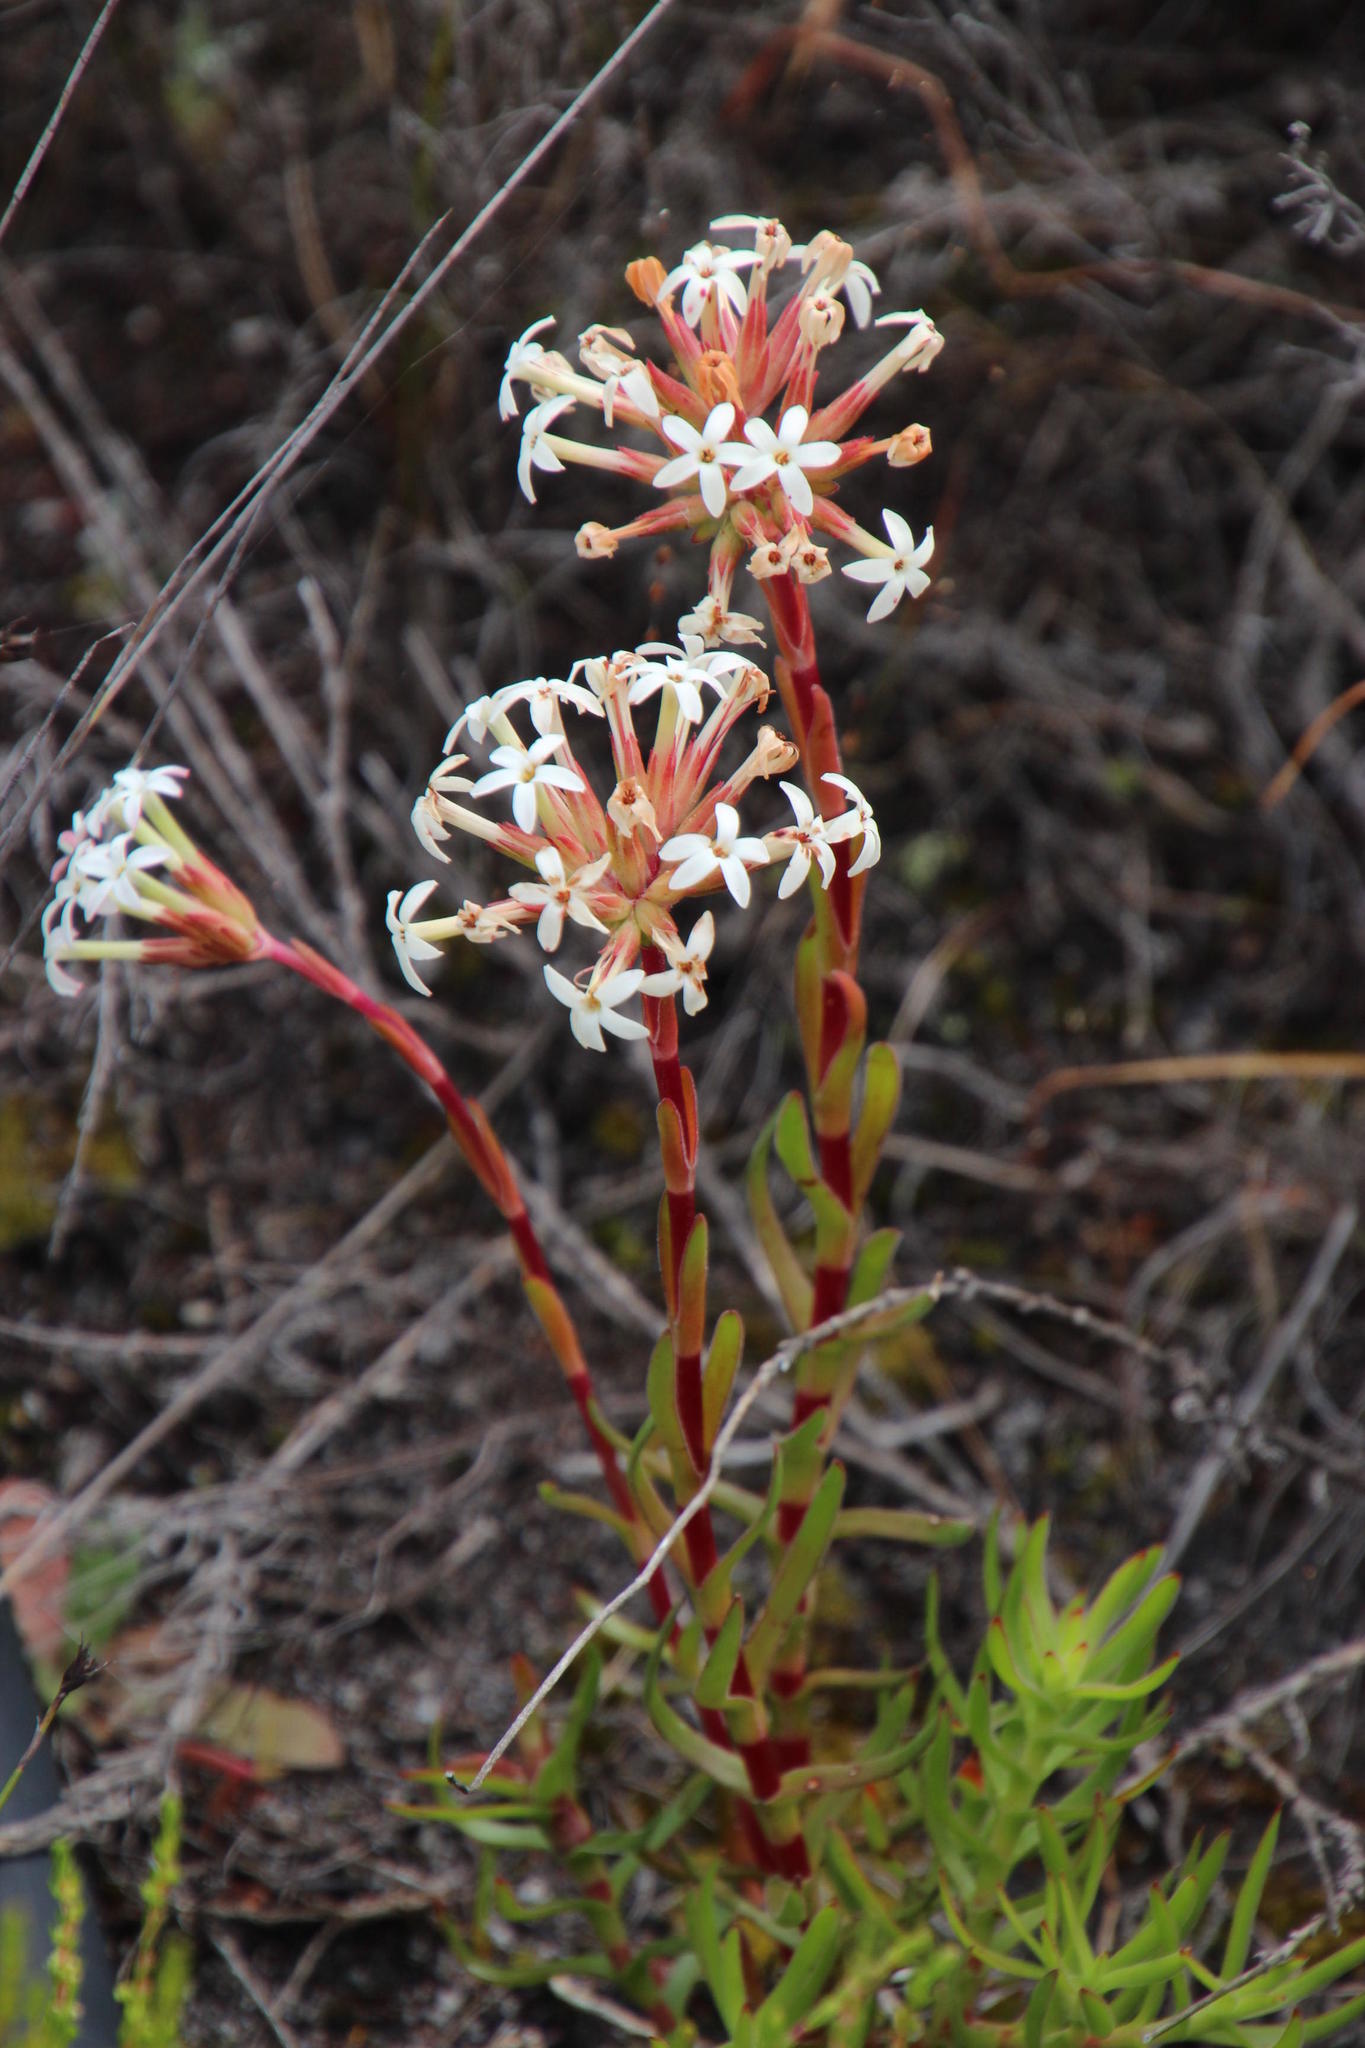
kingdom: Plantae
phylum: Tracheophyta
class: Magnoliopsida
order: Saxifragales
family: Crassulaceae
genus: Crassula
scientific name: Crassula fascicularis
